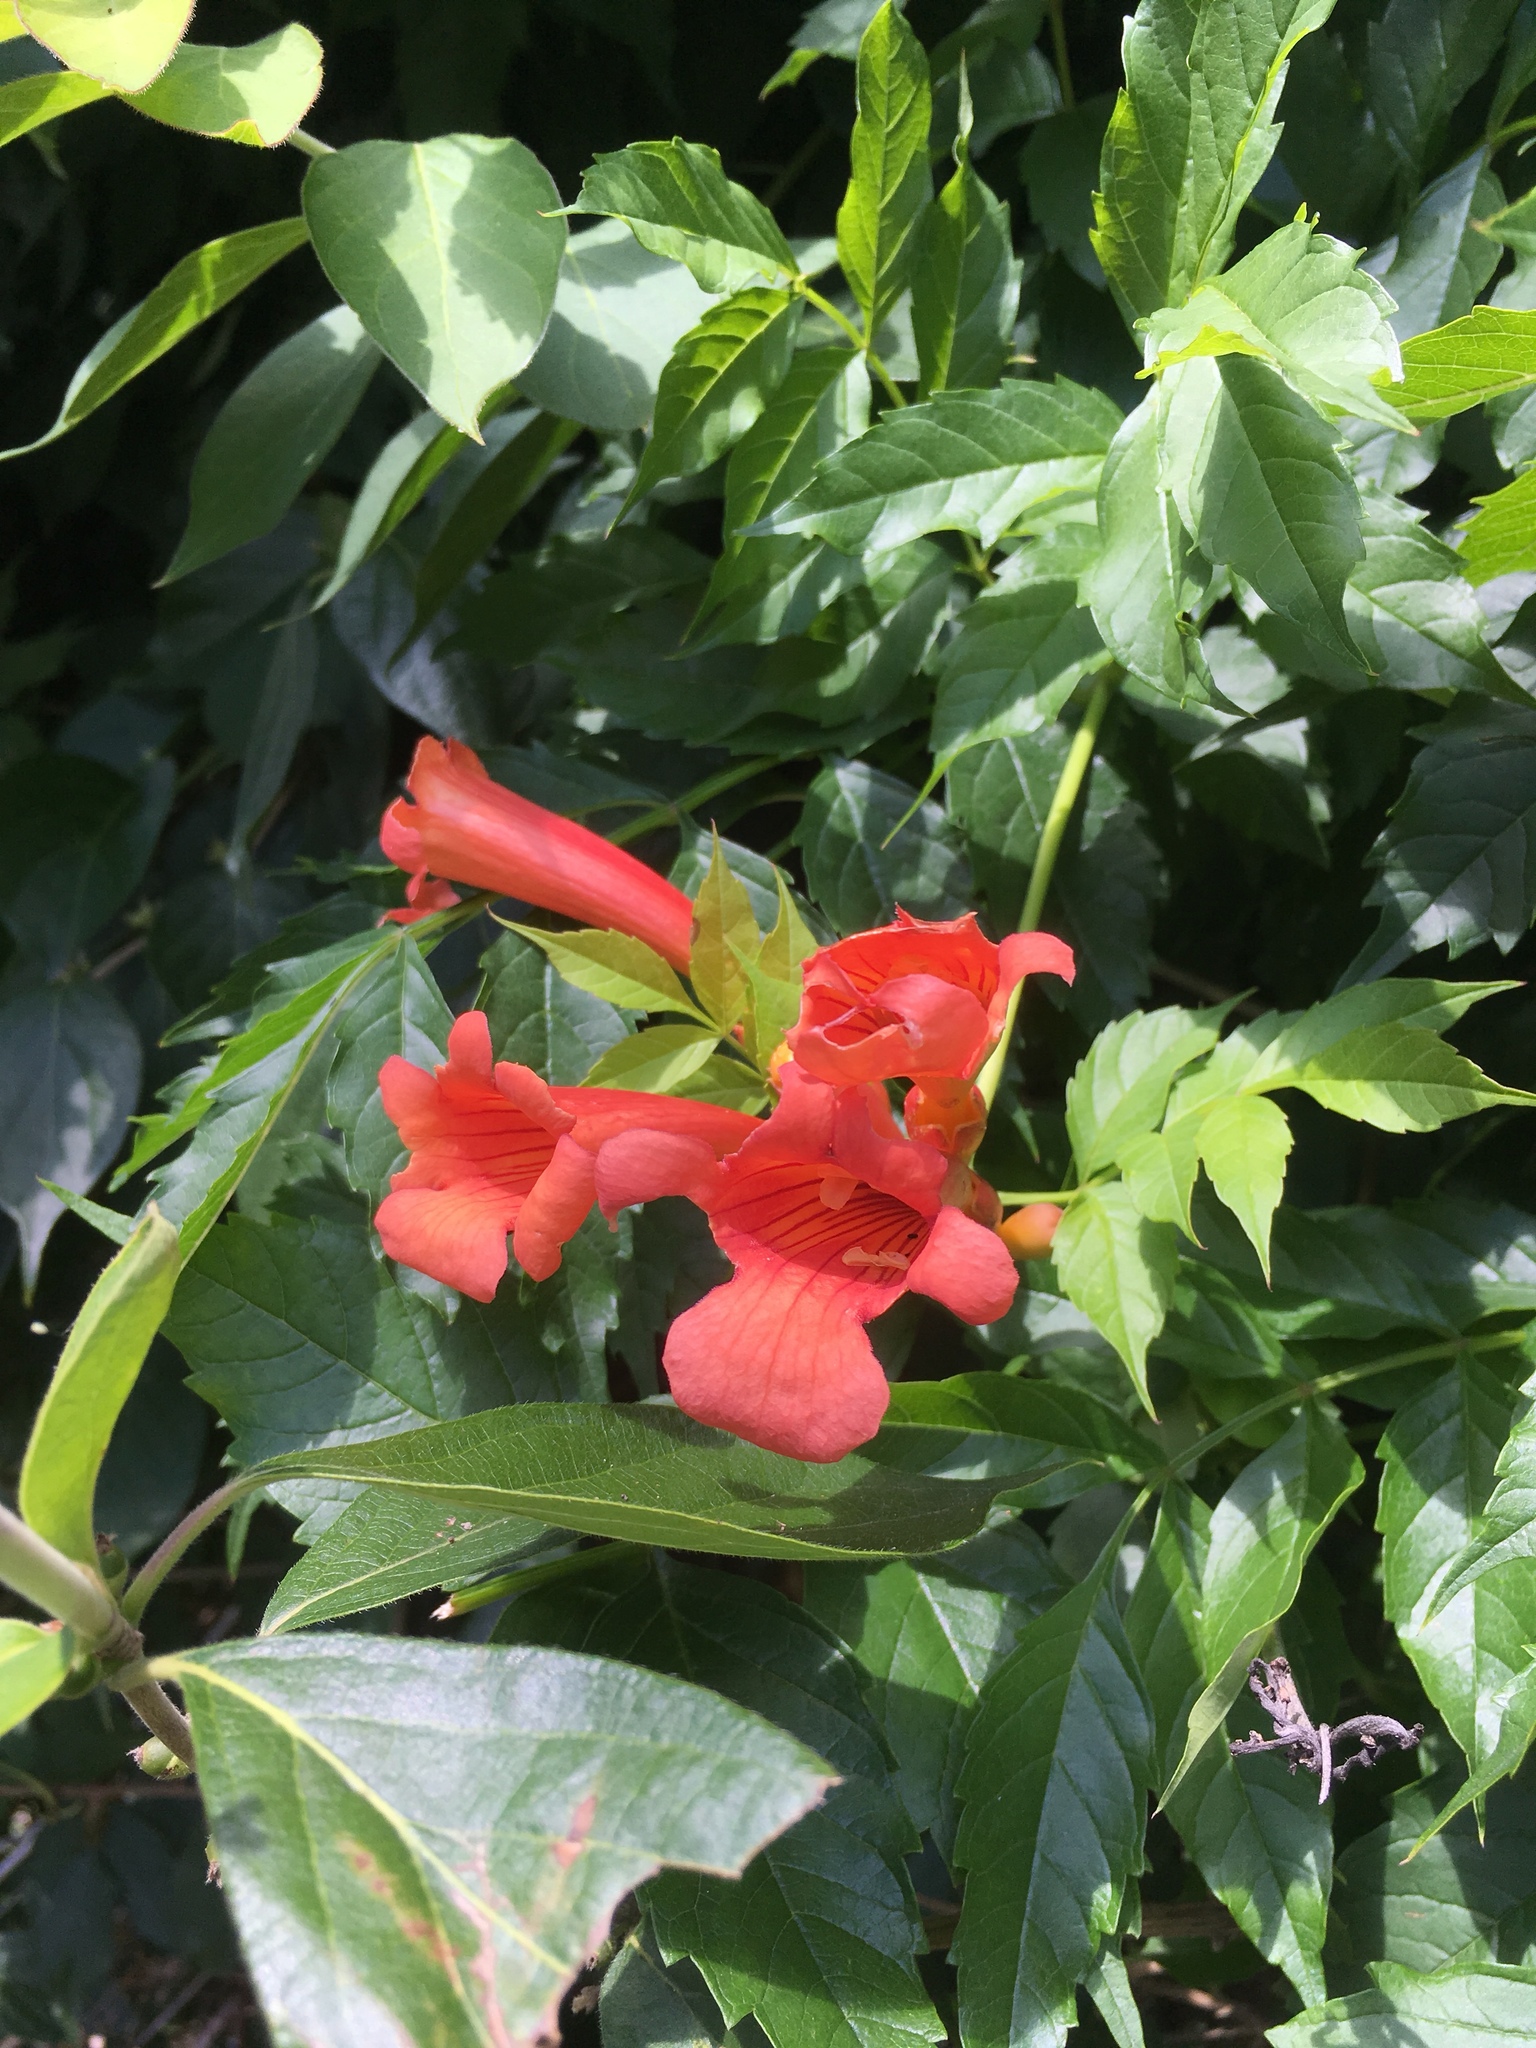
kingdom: Plantae
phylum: Tracheophyta
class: Magnoliopsida
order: Lamiales
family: Bignoniaceae
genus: Campsis
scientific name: Campsis radicans
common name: Trumpet-creeper
